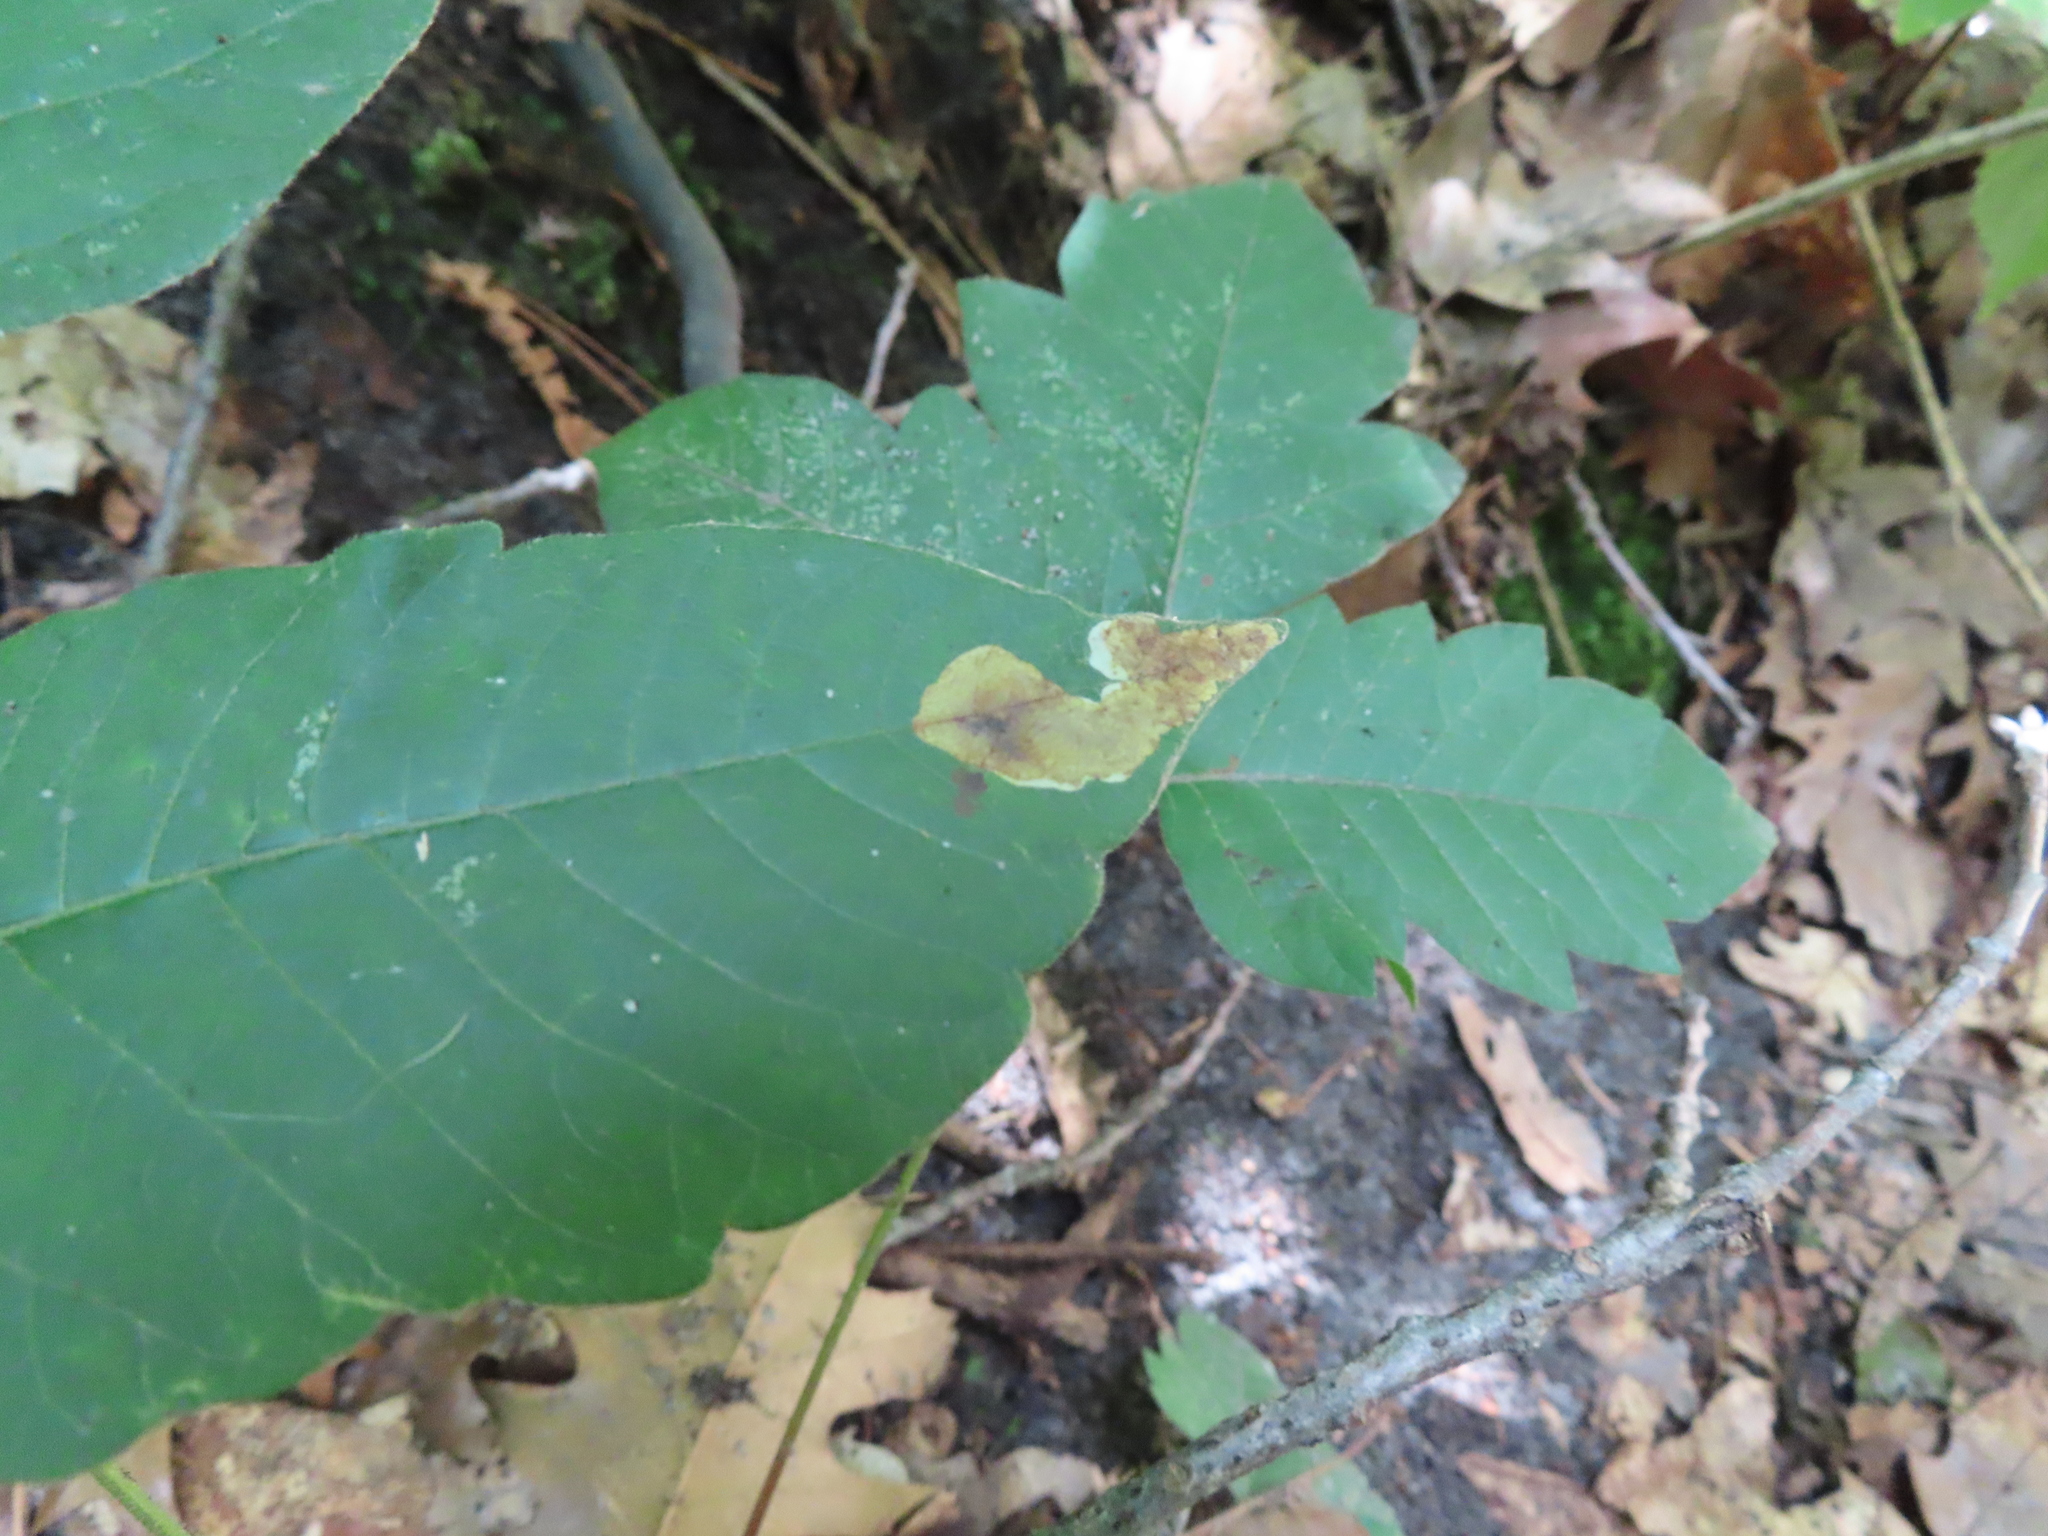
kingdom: Animalia
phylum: Arthropoda
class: Insecta
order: Lepidoptera
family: Gracillariidae
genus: Cameraria
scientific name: Cameraria guttifinitella
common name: Poison ivy leaf-miner moth
